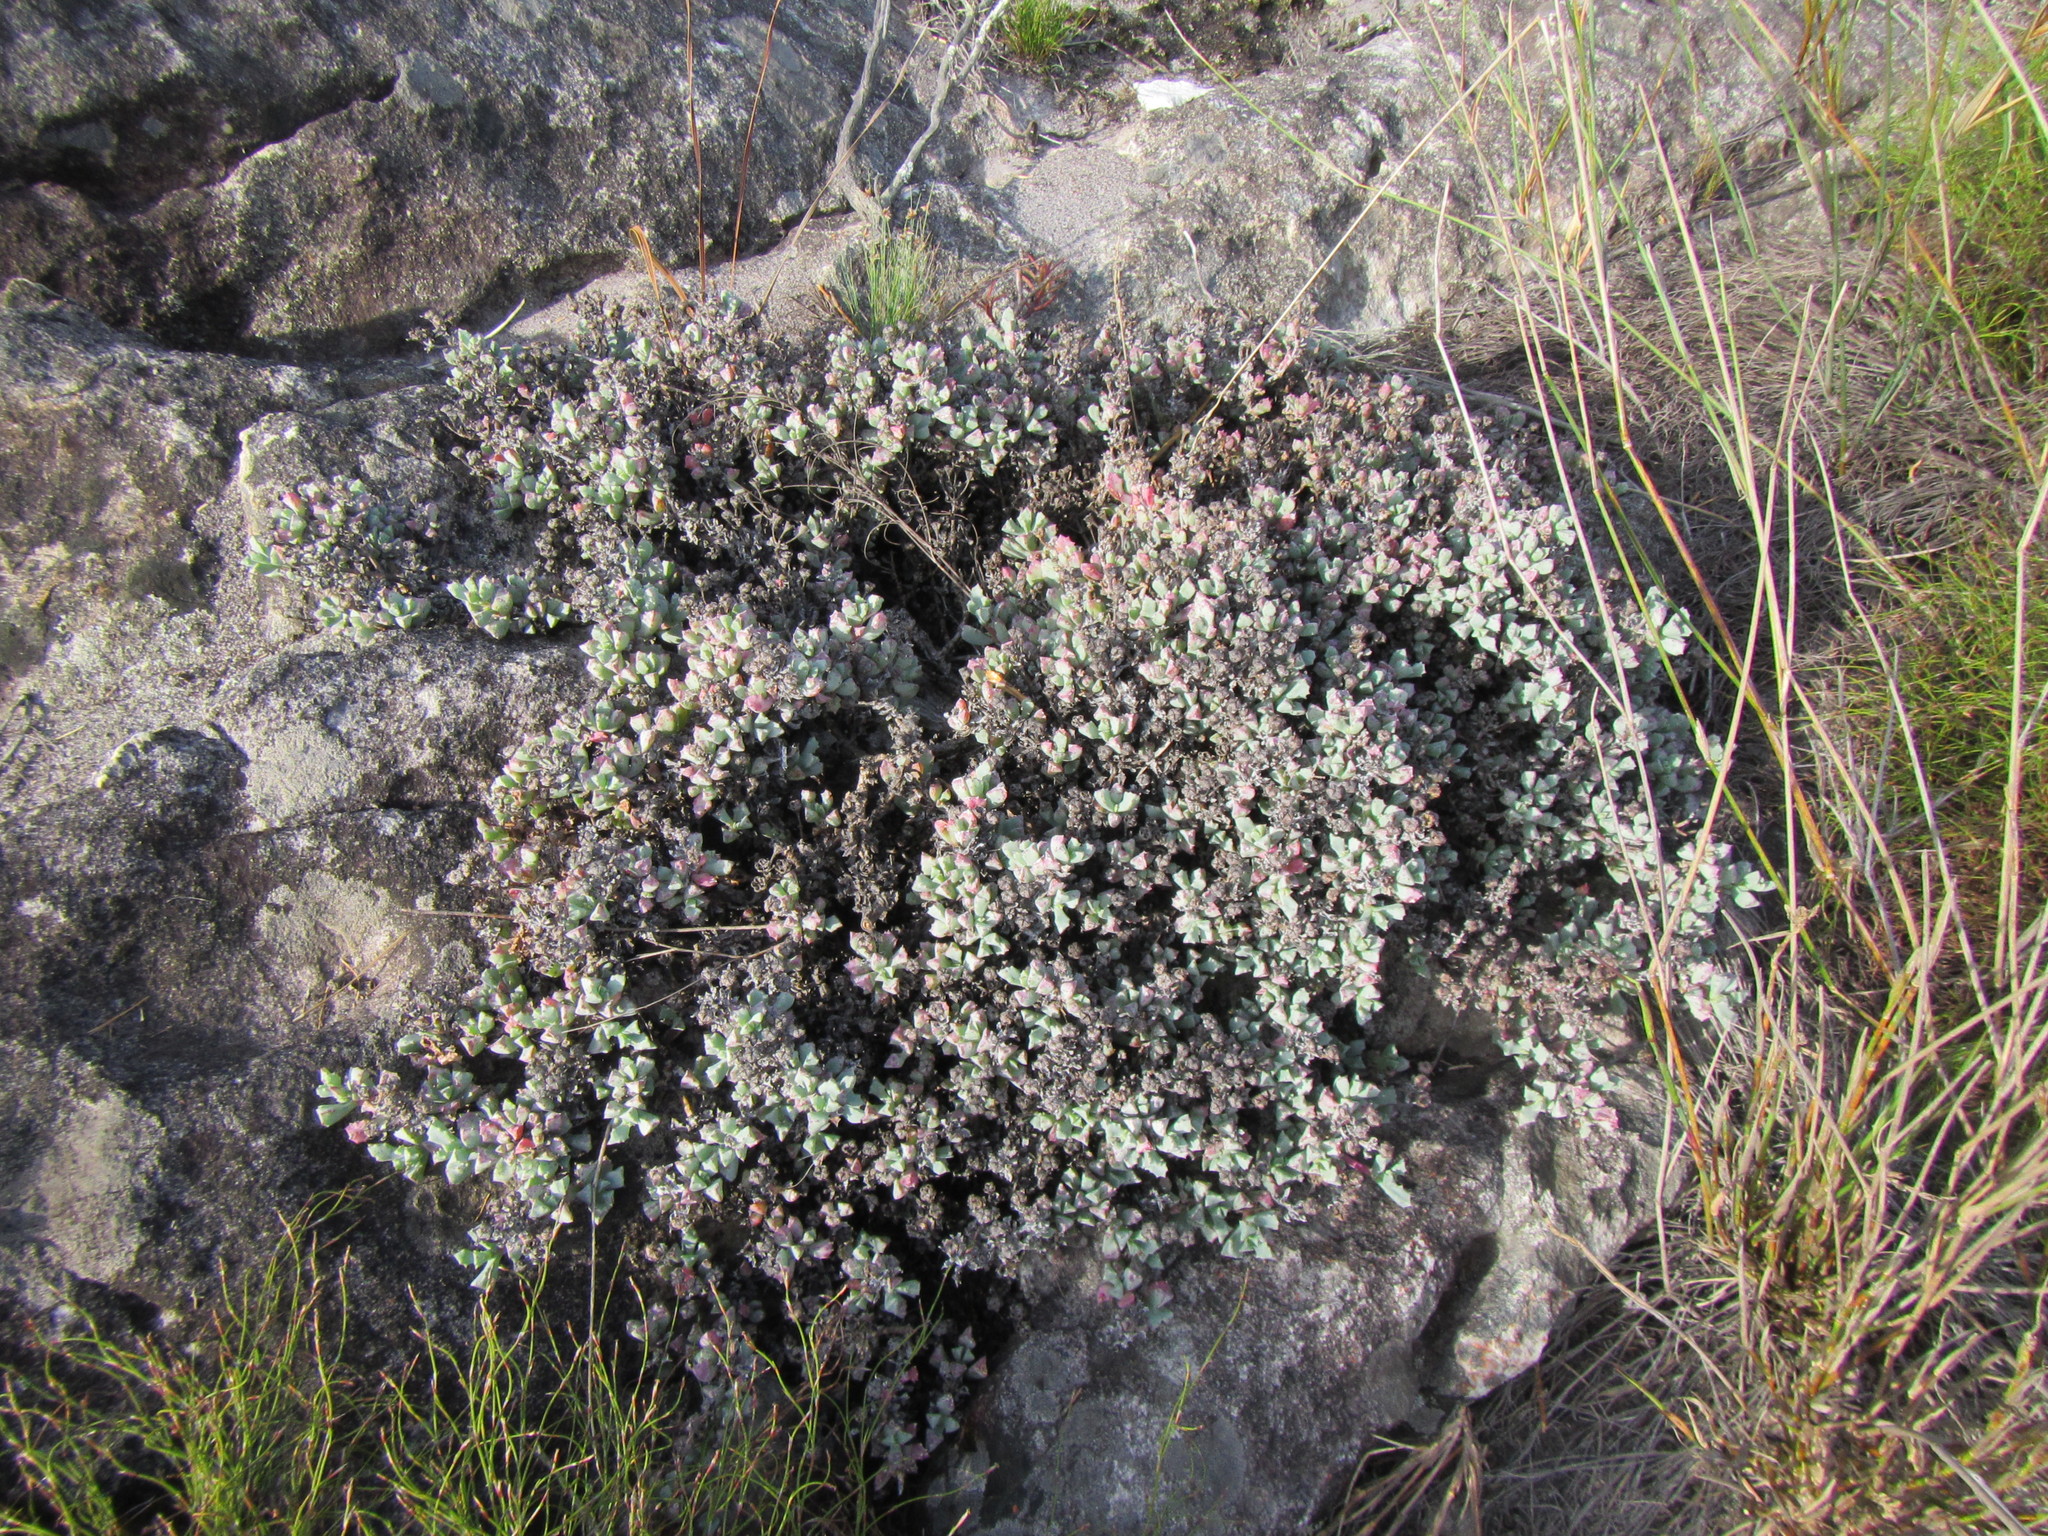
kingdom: Plantae
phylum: Tracheophyta
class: Magnoliopsida
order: Caryophyllales
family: Aizoaceae
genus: Oscularia
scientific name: Oscularia deltoides
